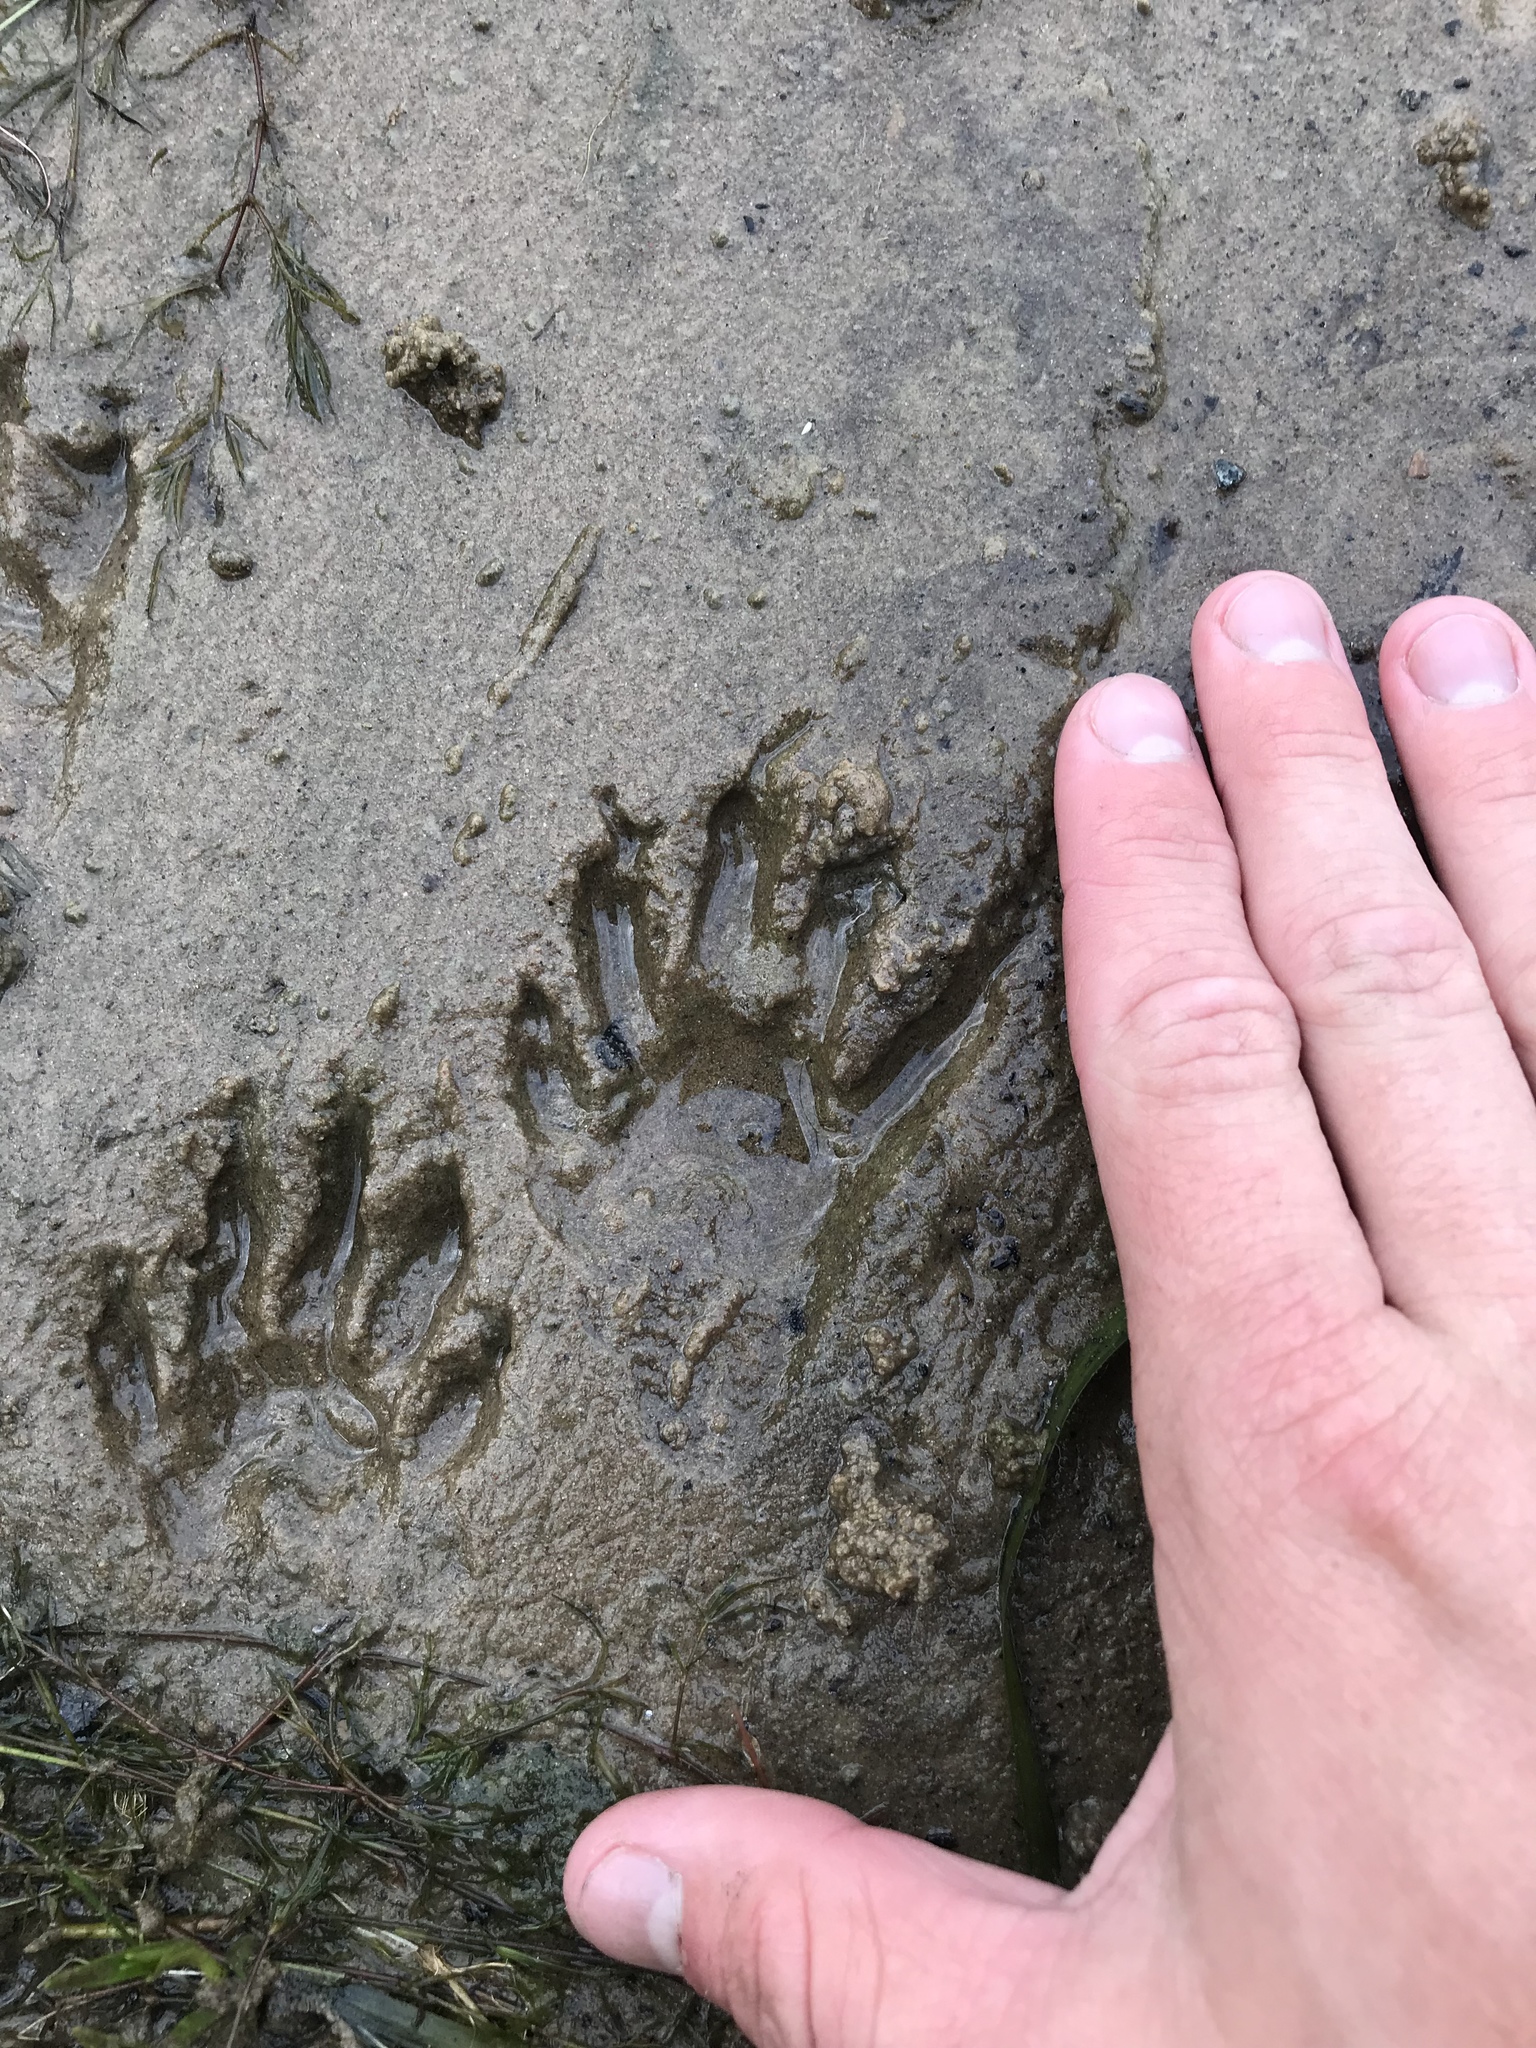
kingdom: Animalia
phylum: Chordata
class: Mammalia
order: Carnivora
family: Procyonidae
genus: Procyon
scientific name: Procyon lotor
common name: Raccoon
